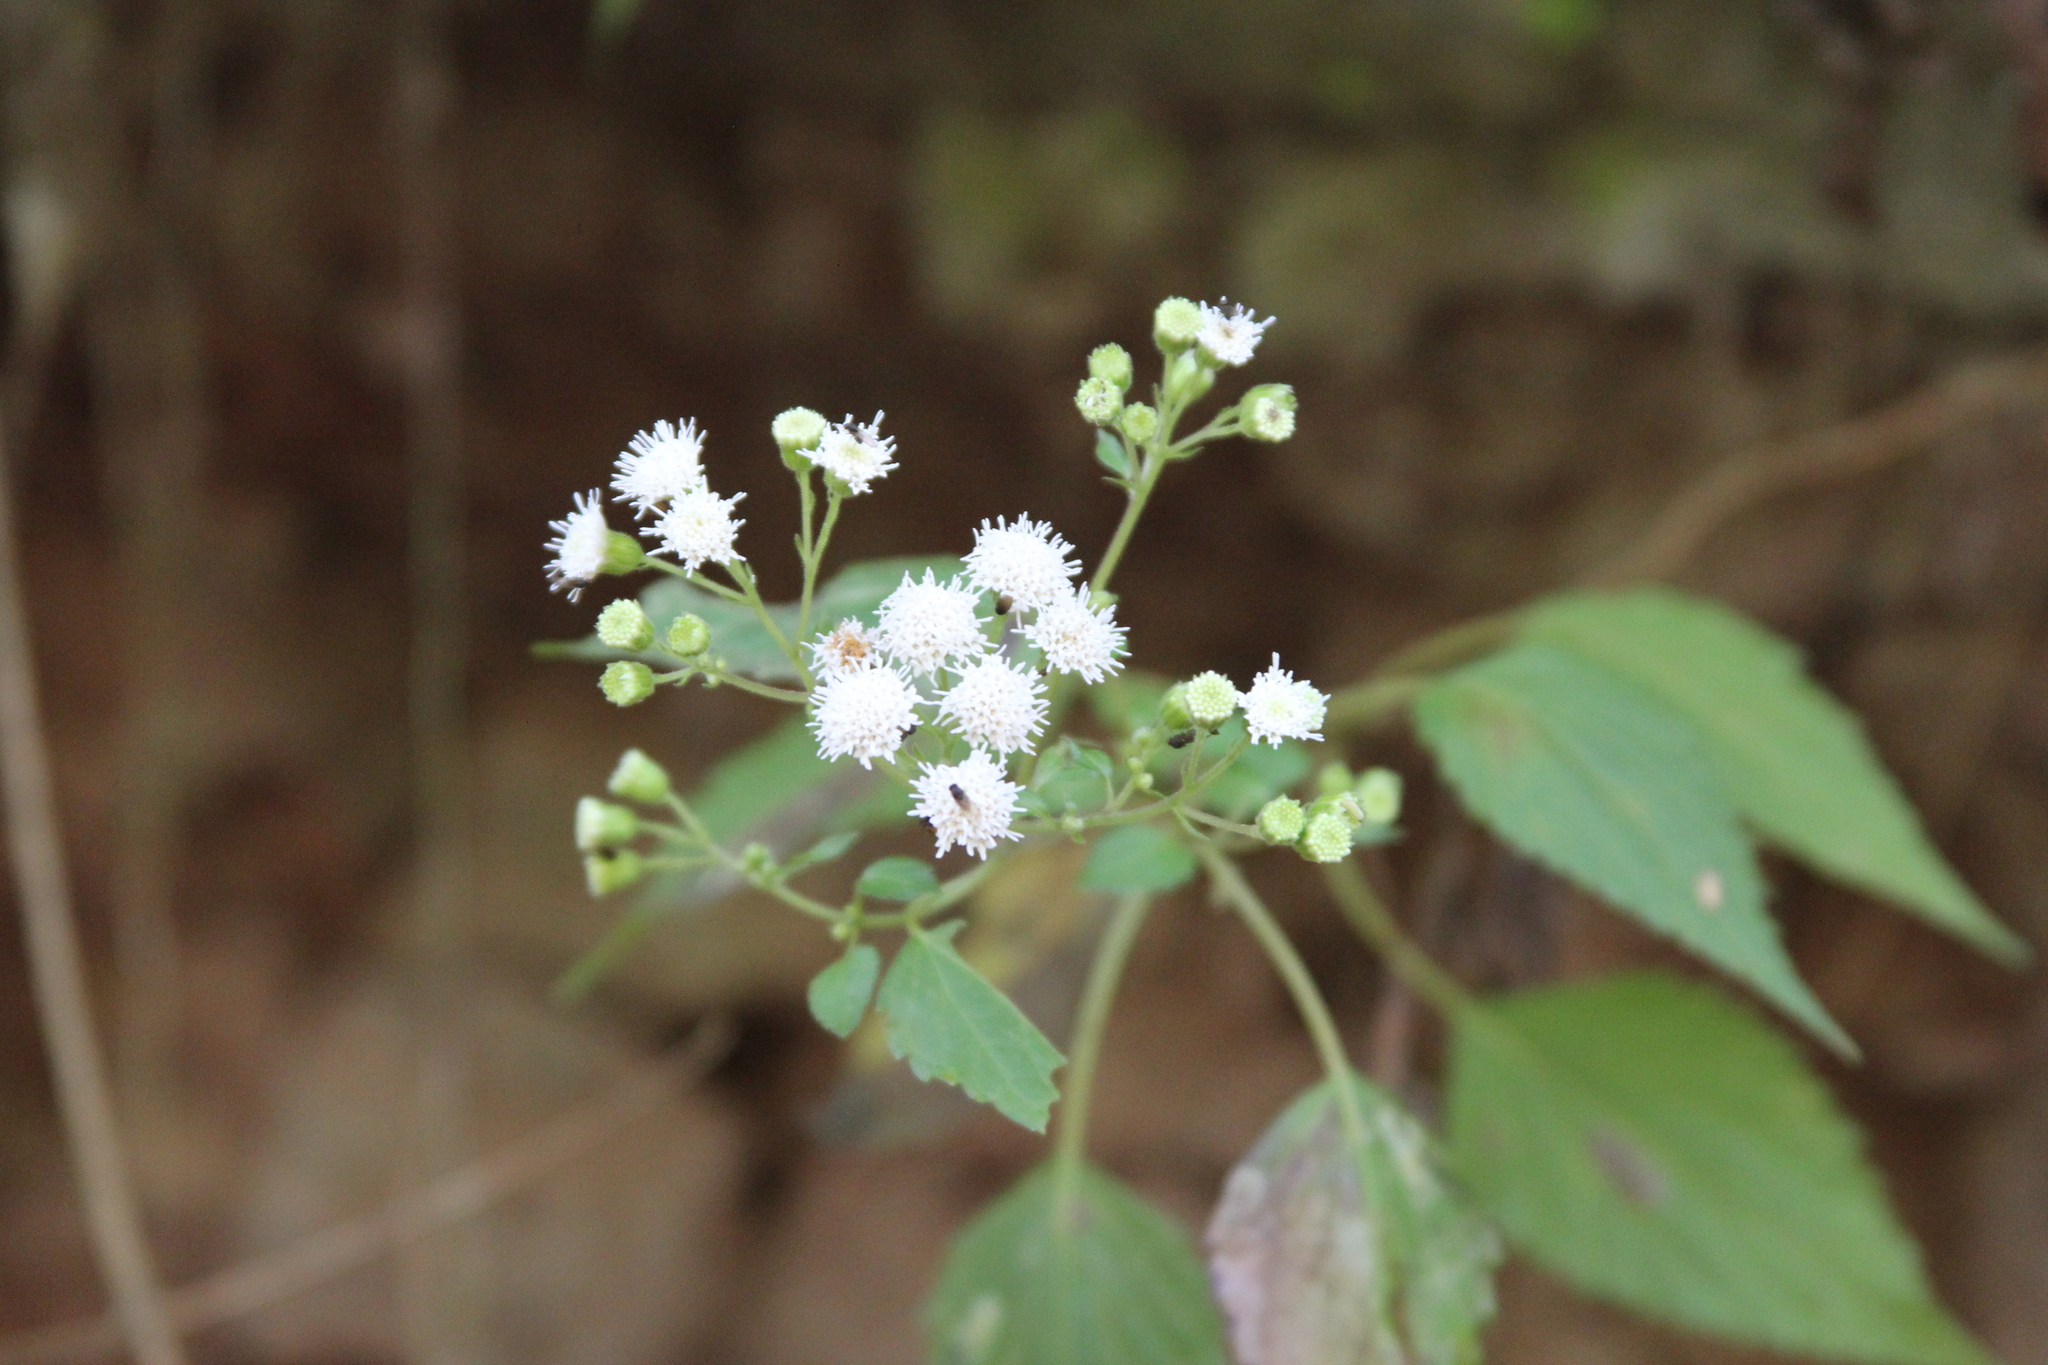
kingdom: Plantae
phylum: Tracheophyta
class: Magnoliopsida
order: Asterales
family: Asteraceae
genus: Ageratina
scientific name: Ageratina tenuis
